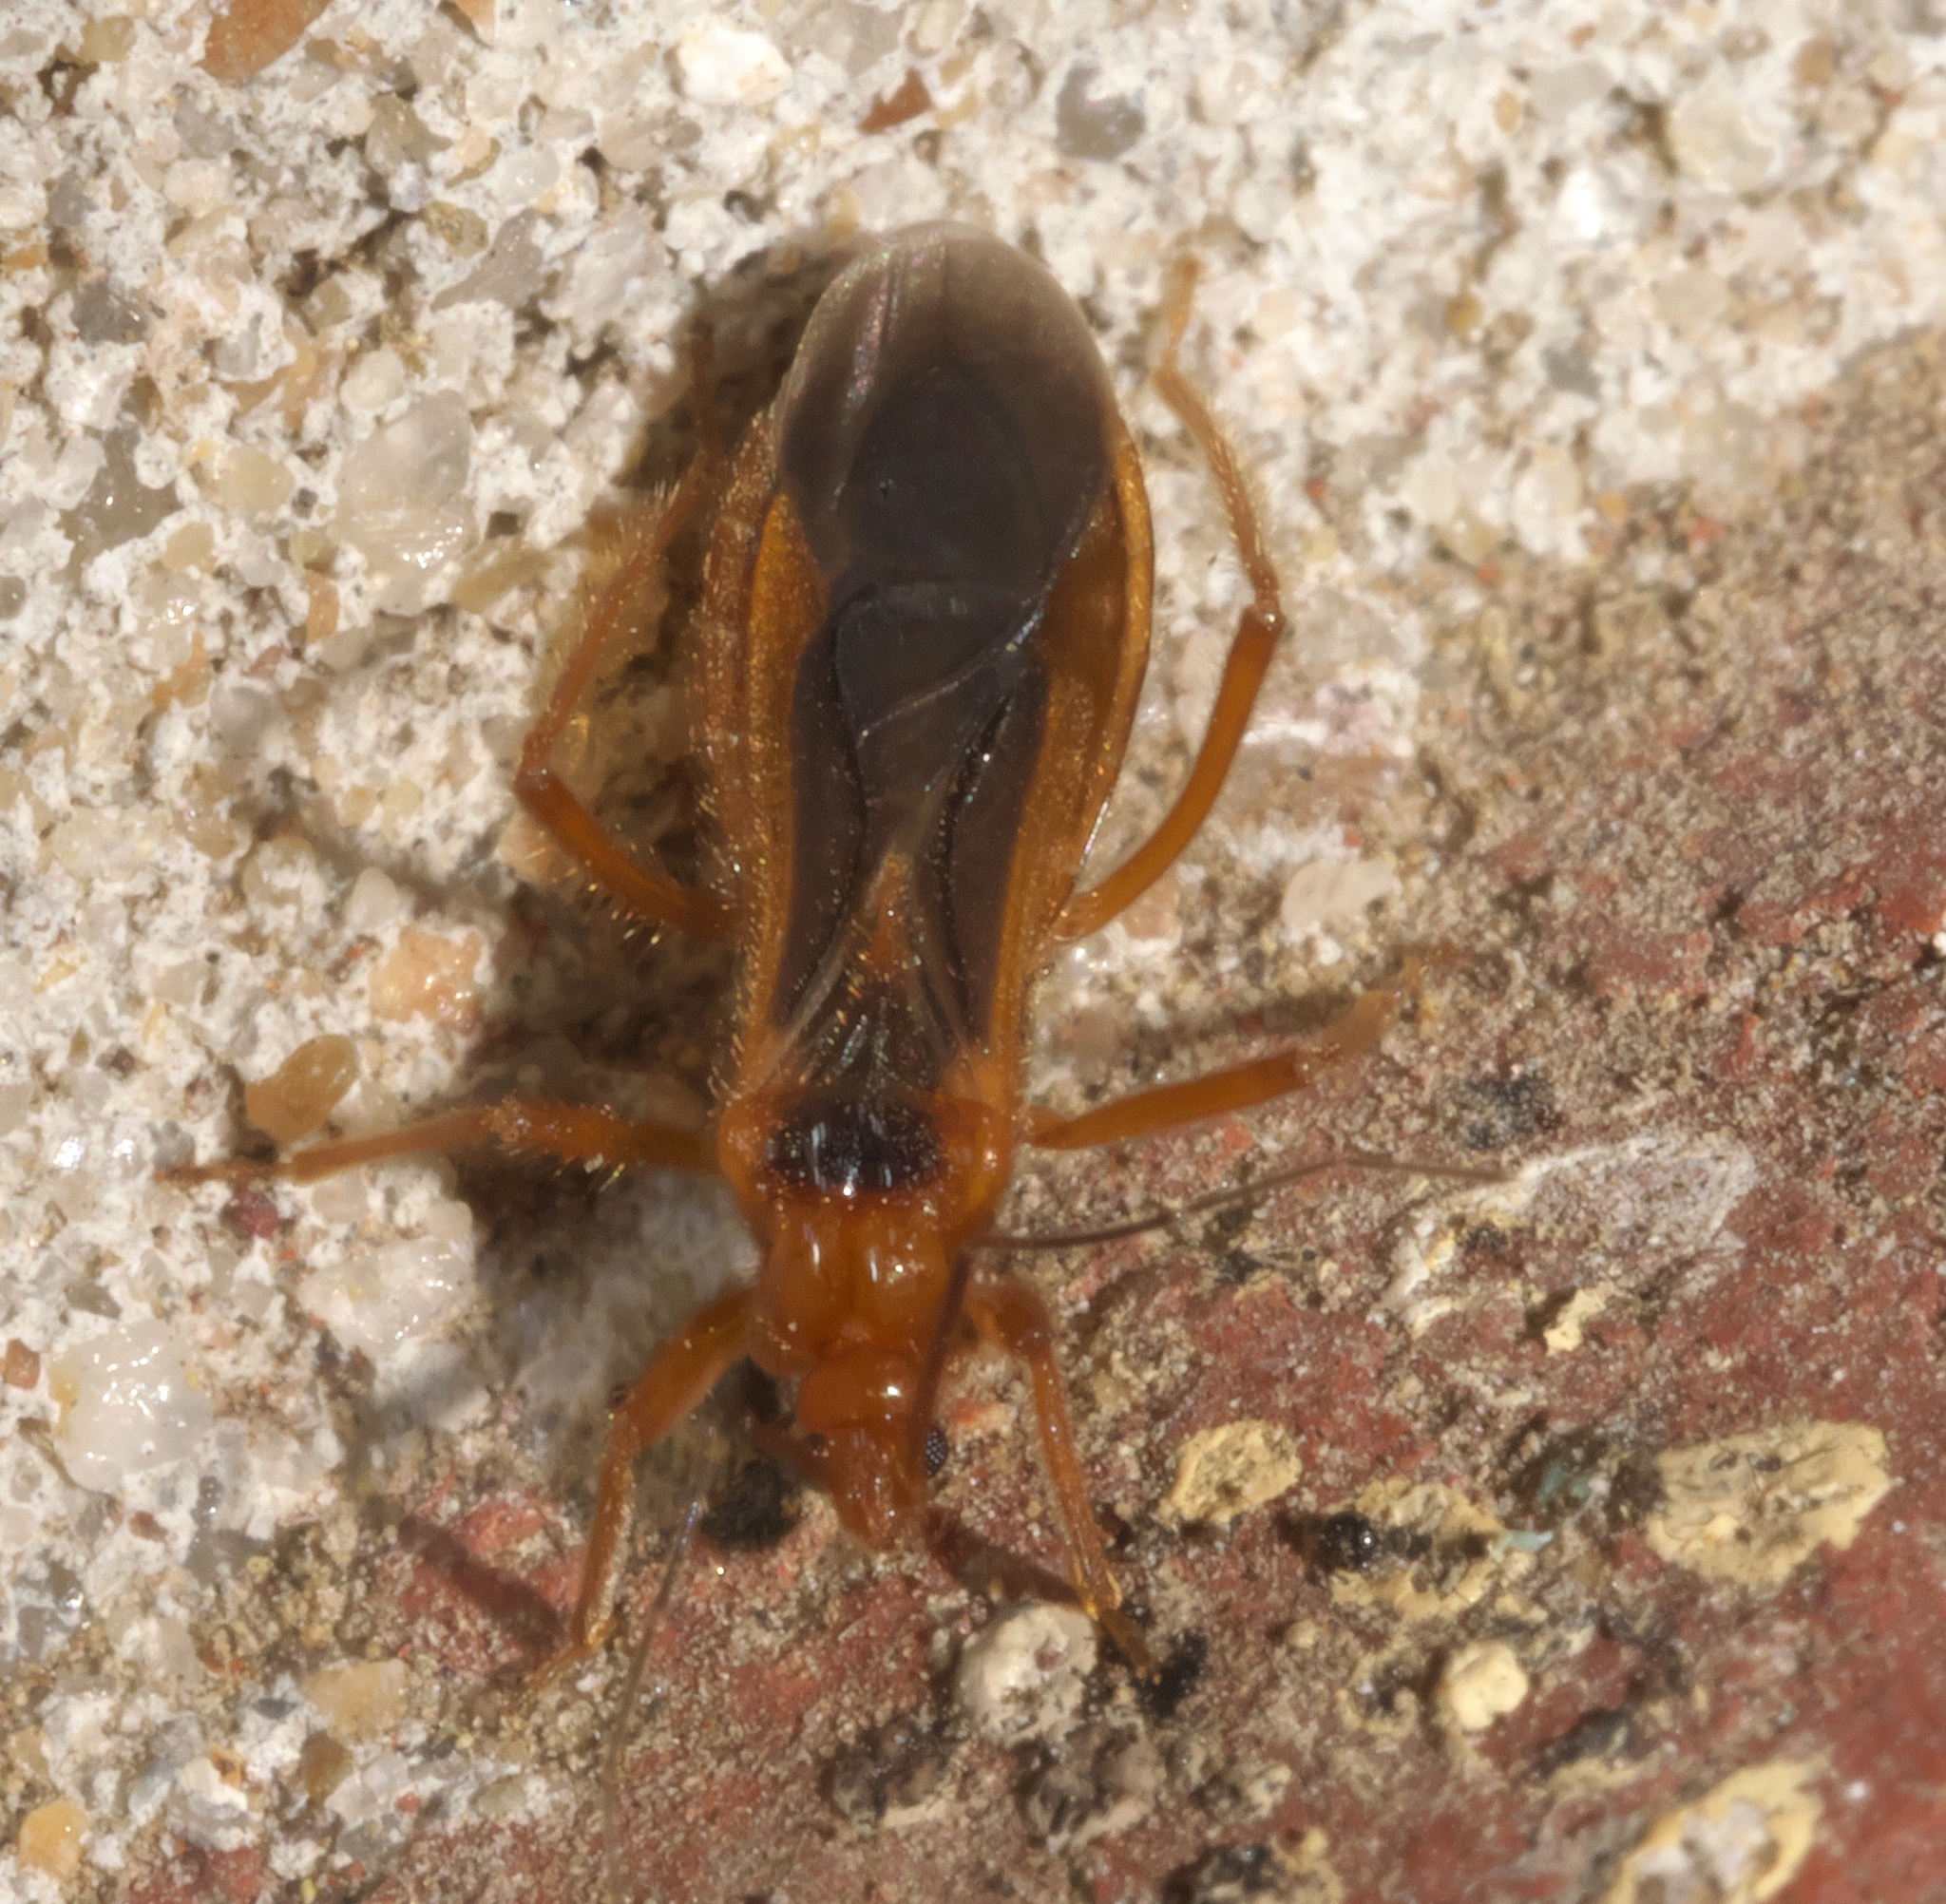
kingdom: Animalia
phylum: Arthropoda
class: Insecta
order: Hemiptera
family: Reduviidae
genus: Oncerotrachelus
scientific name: Oncerotrachelus acuminatus
